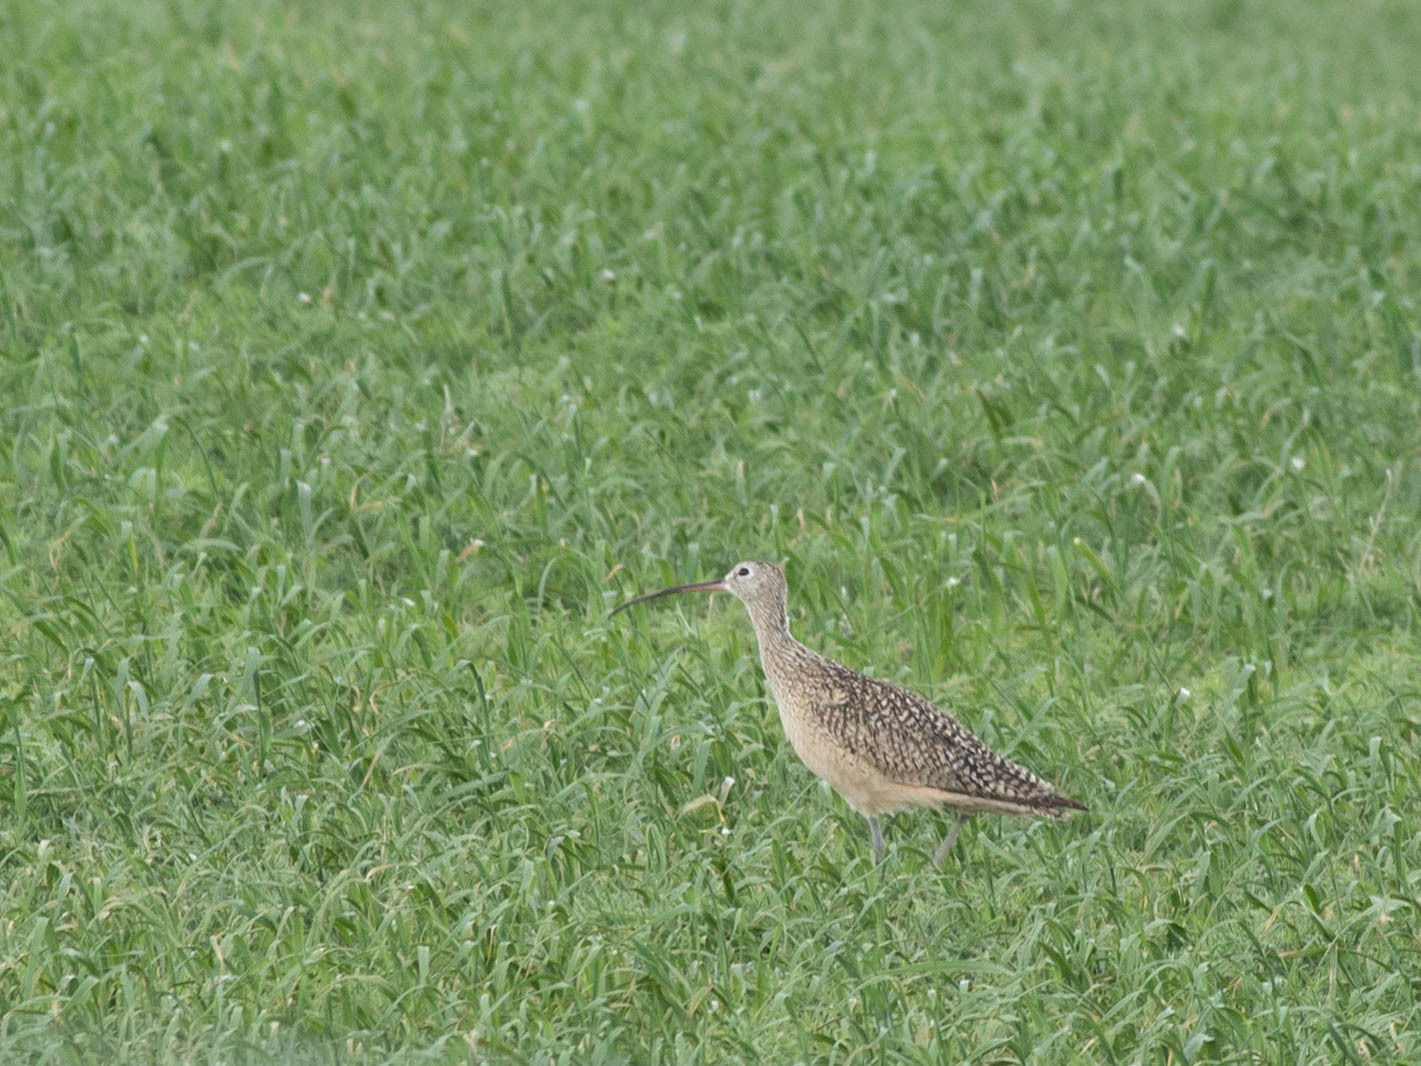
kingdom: Animalia
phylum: Chordata
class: Aves
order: Charadriiformes
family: Scolopacidae
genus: Numenius
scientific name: Numenius americanus
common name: Long-billed curlew
